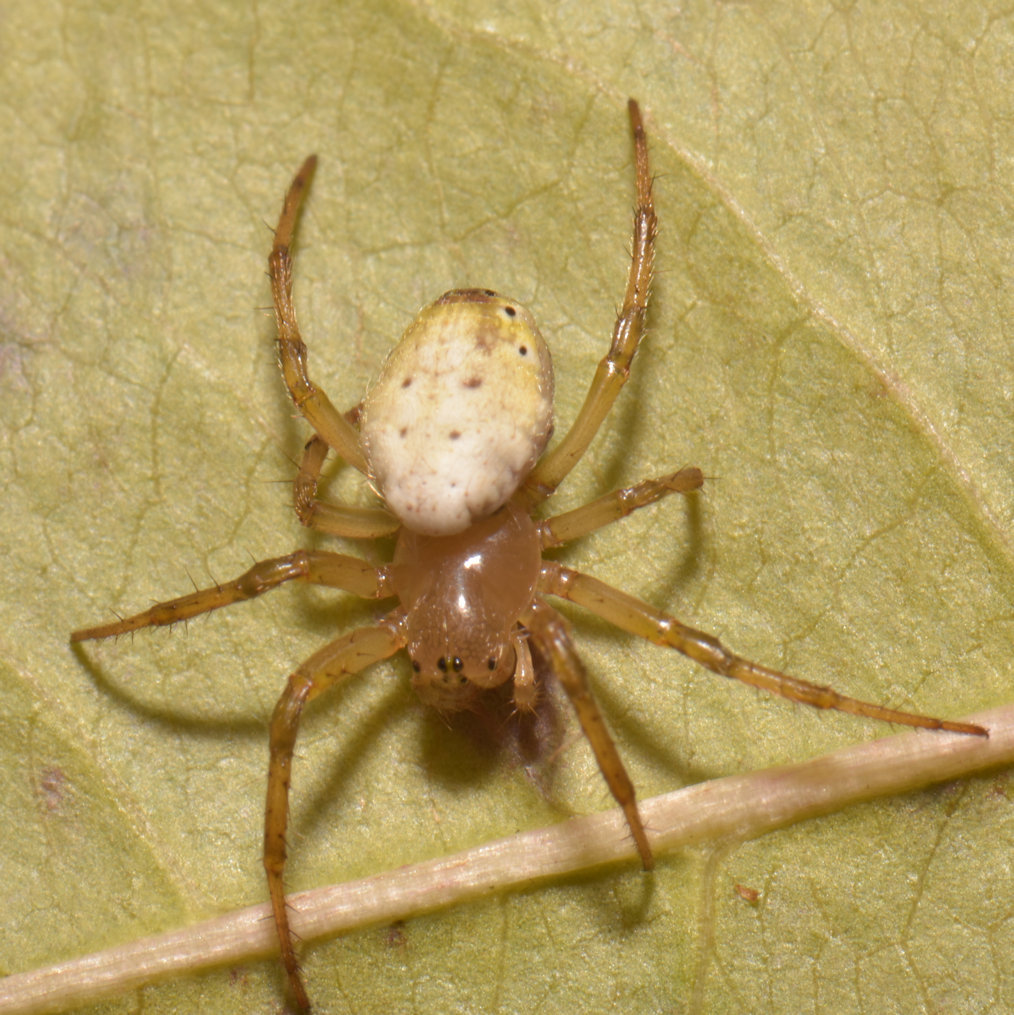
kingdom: Animalia
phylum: Arthropoda
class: Arachnida
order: Araneae
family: Araneidae
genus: Araniella
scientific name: Araniella displicata
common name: Sixspotted orb weaver
